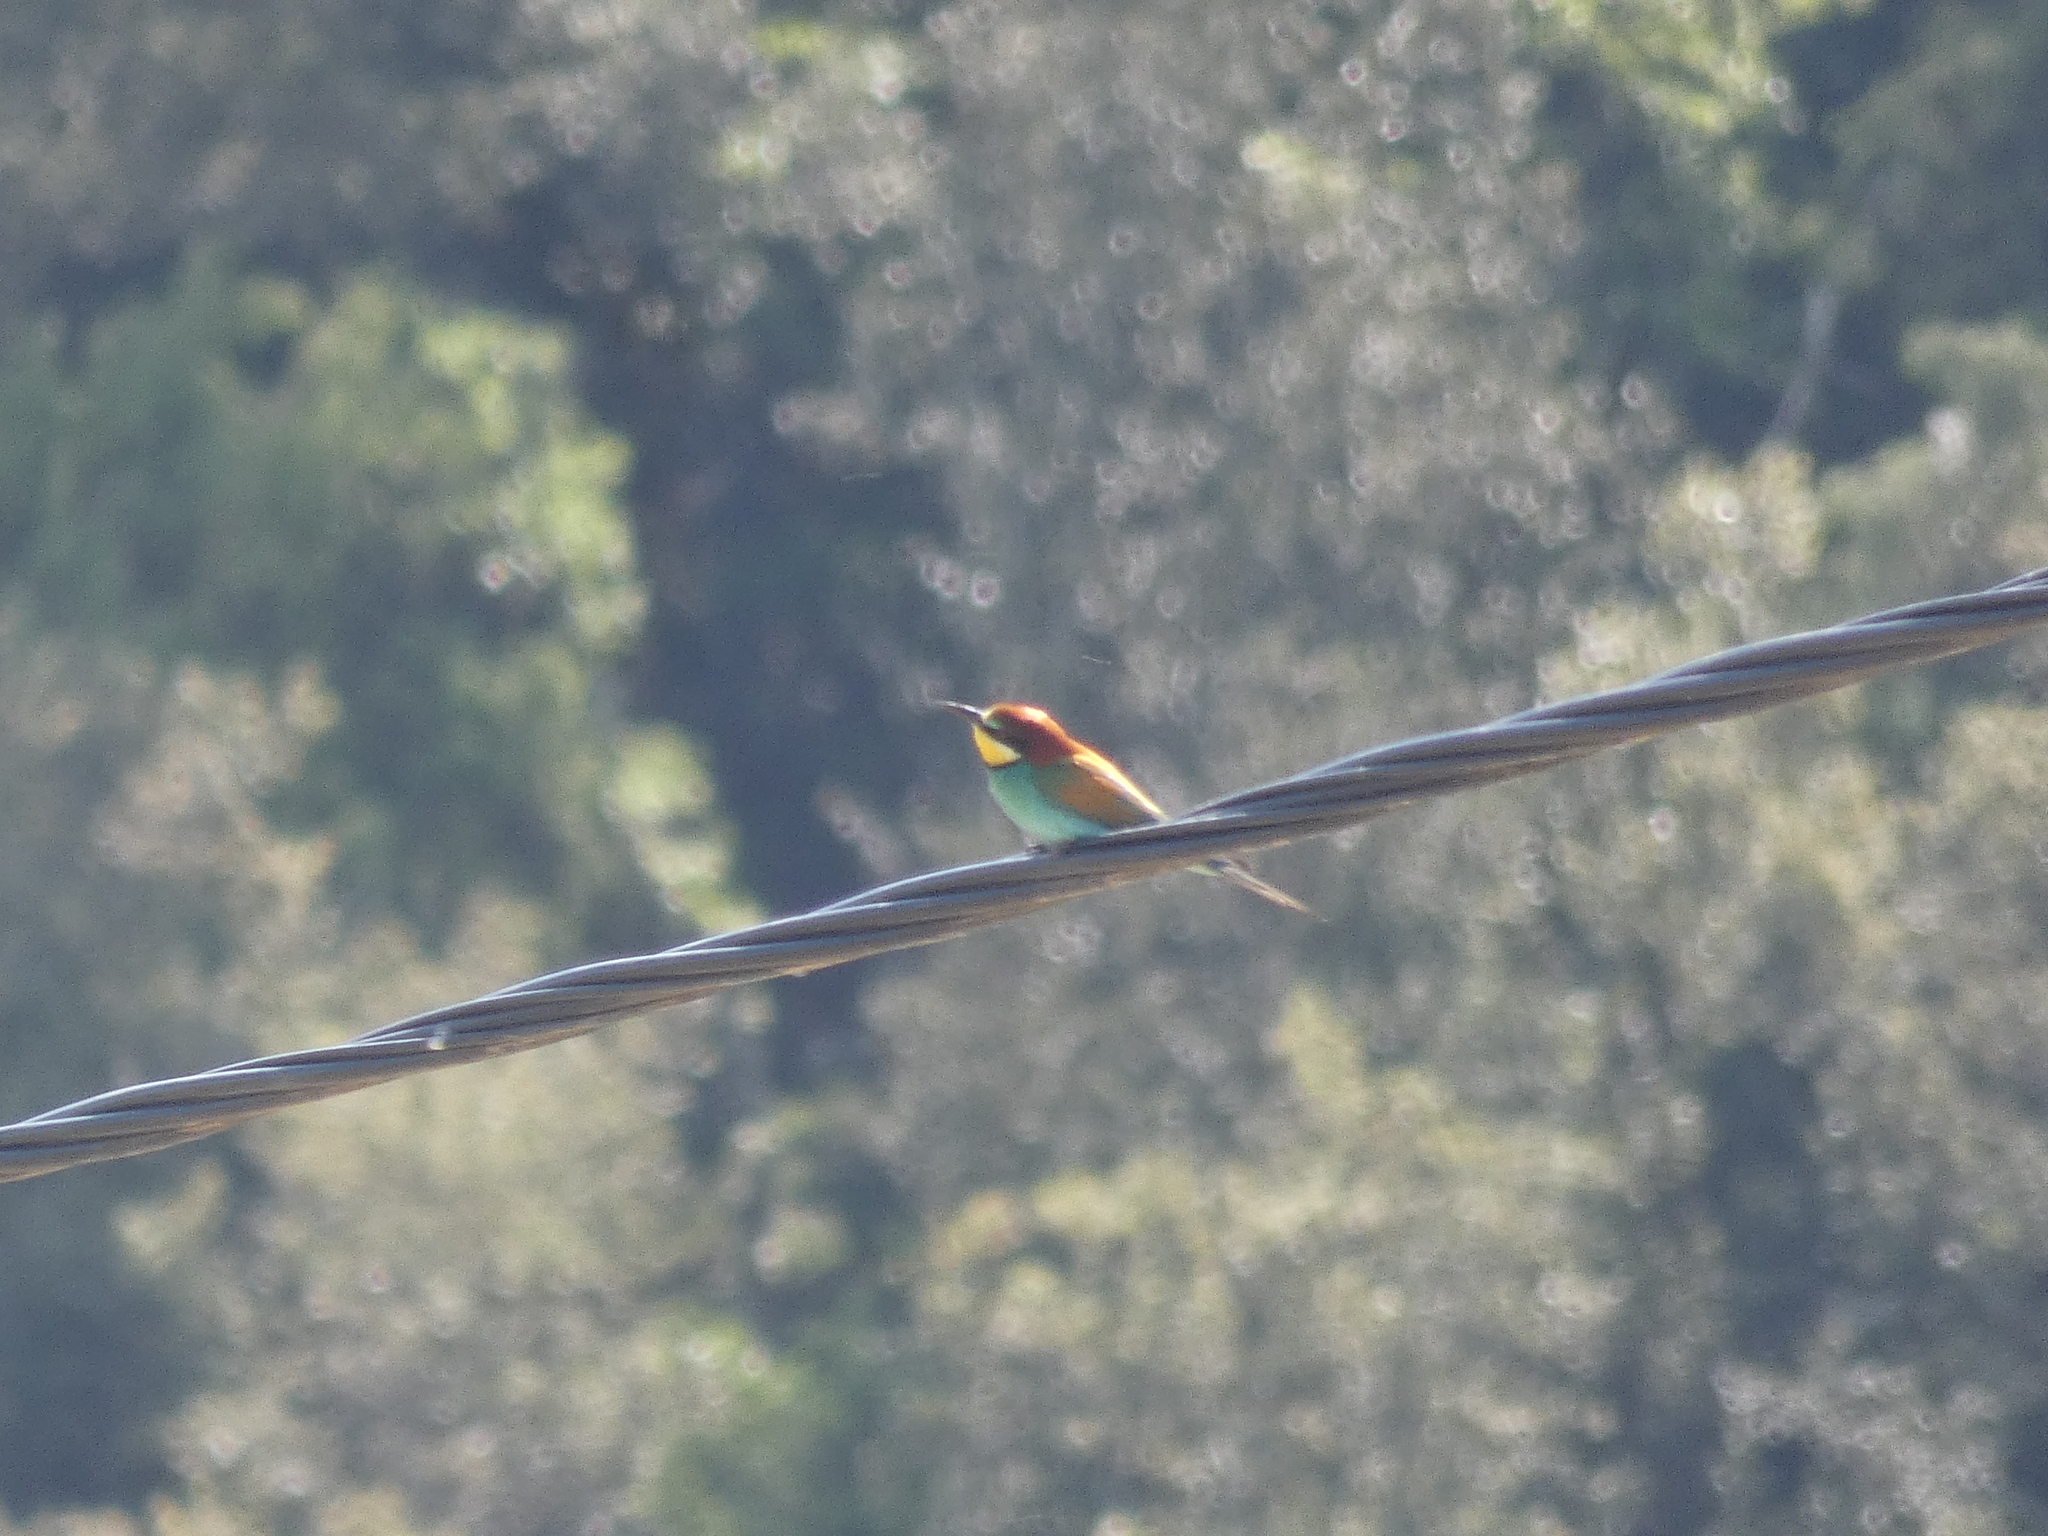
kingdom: Animalia
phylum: Chordata
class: Aves
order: Coraciiformes
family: Meropidae
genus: Merops
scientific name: Merops apiaster
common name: European bee-eater
